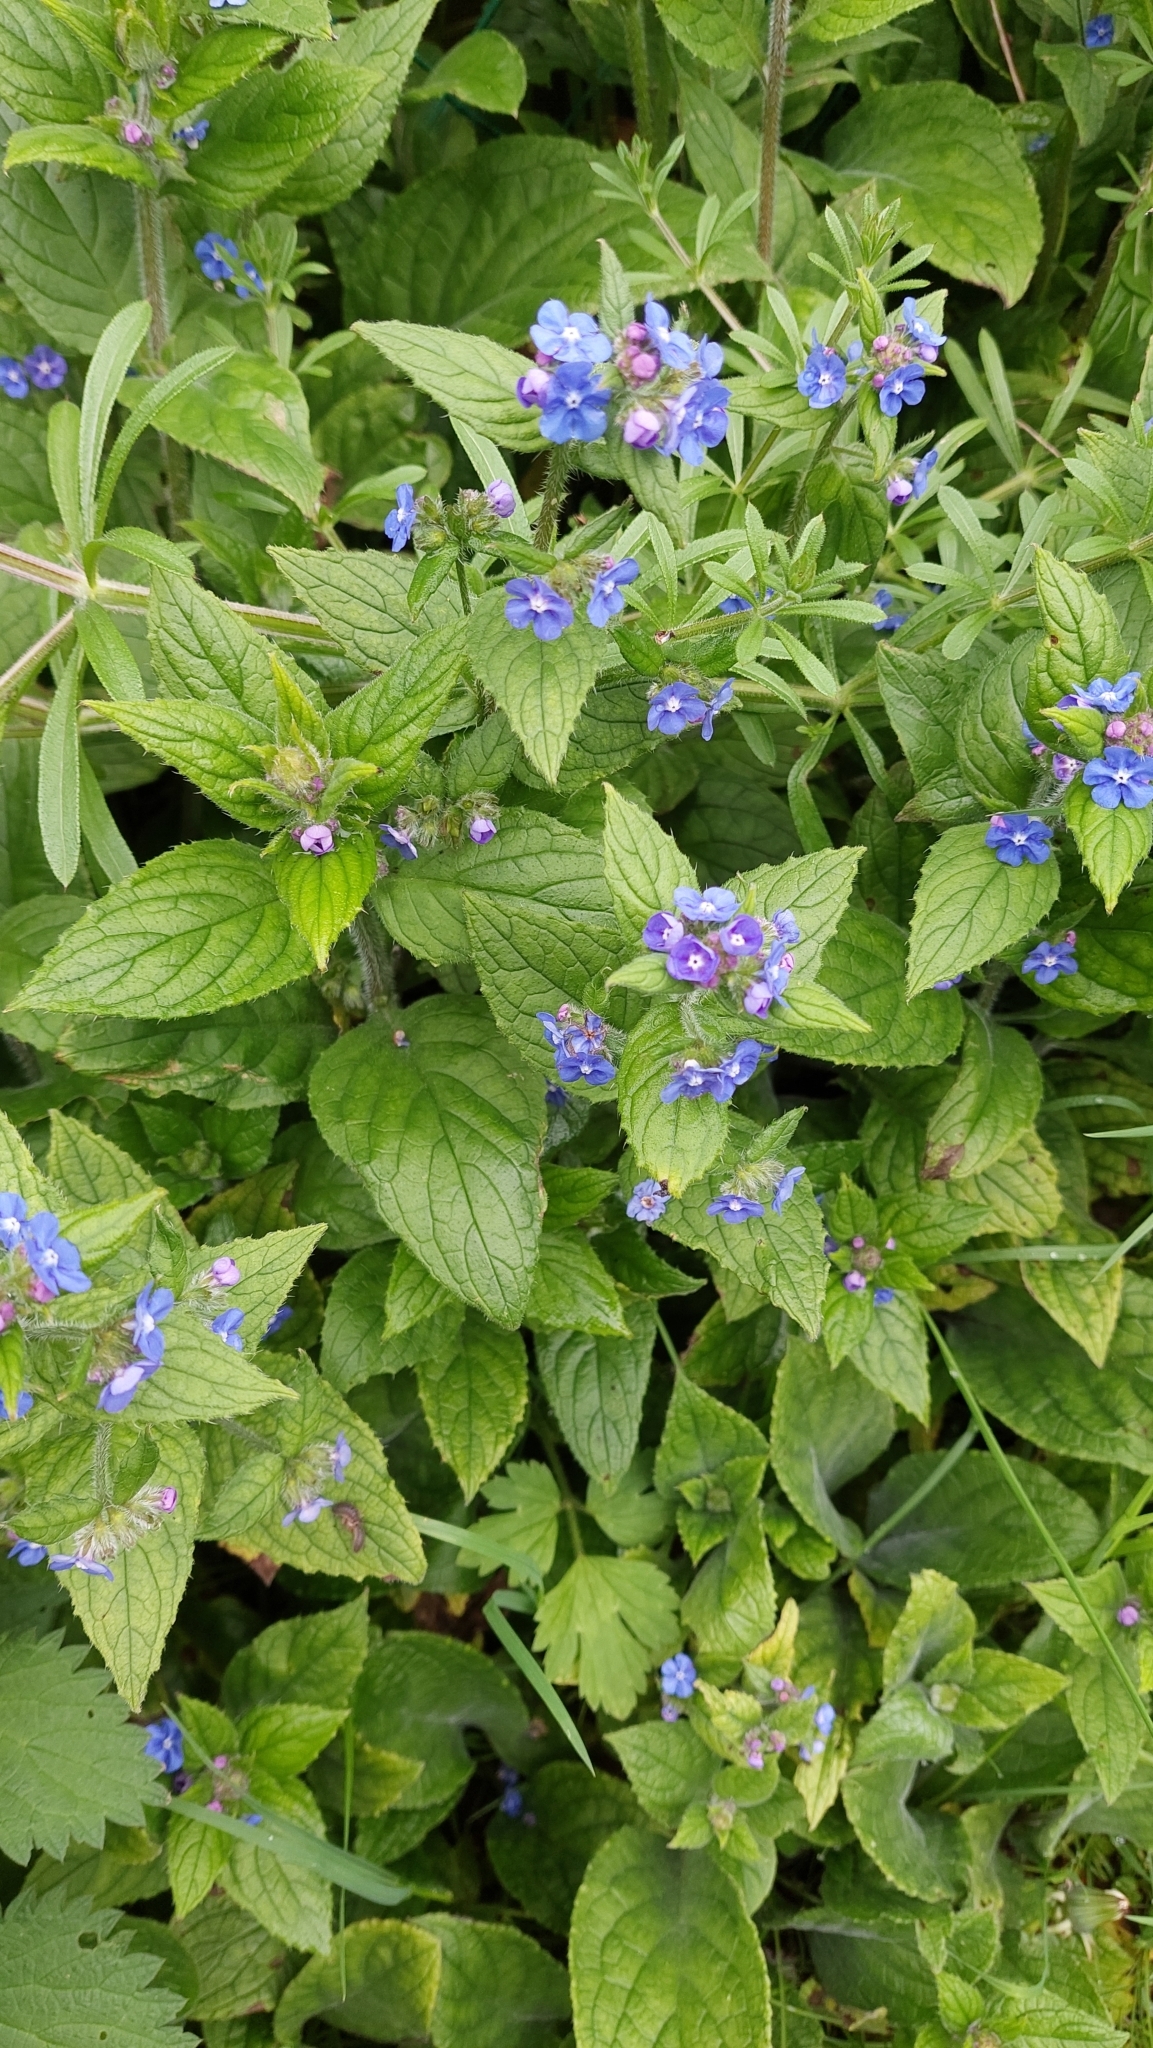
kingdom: Plantae
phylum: Tracheophyta
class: Magnoliopsida
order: Boraginales
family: Boraginaceae
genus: Pentaglottis
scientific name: Pentaglottis sempervirens
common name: Green alkanet
